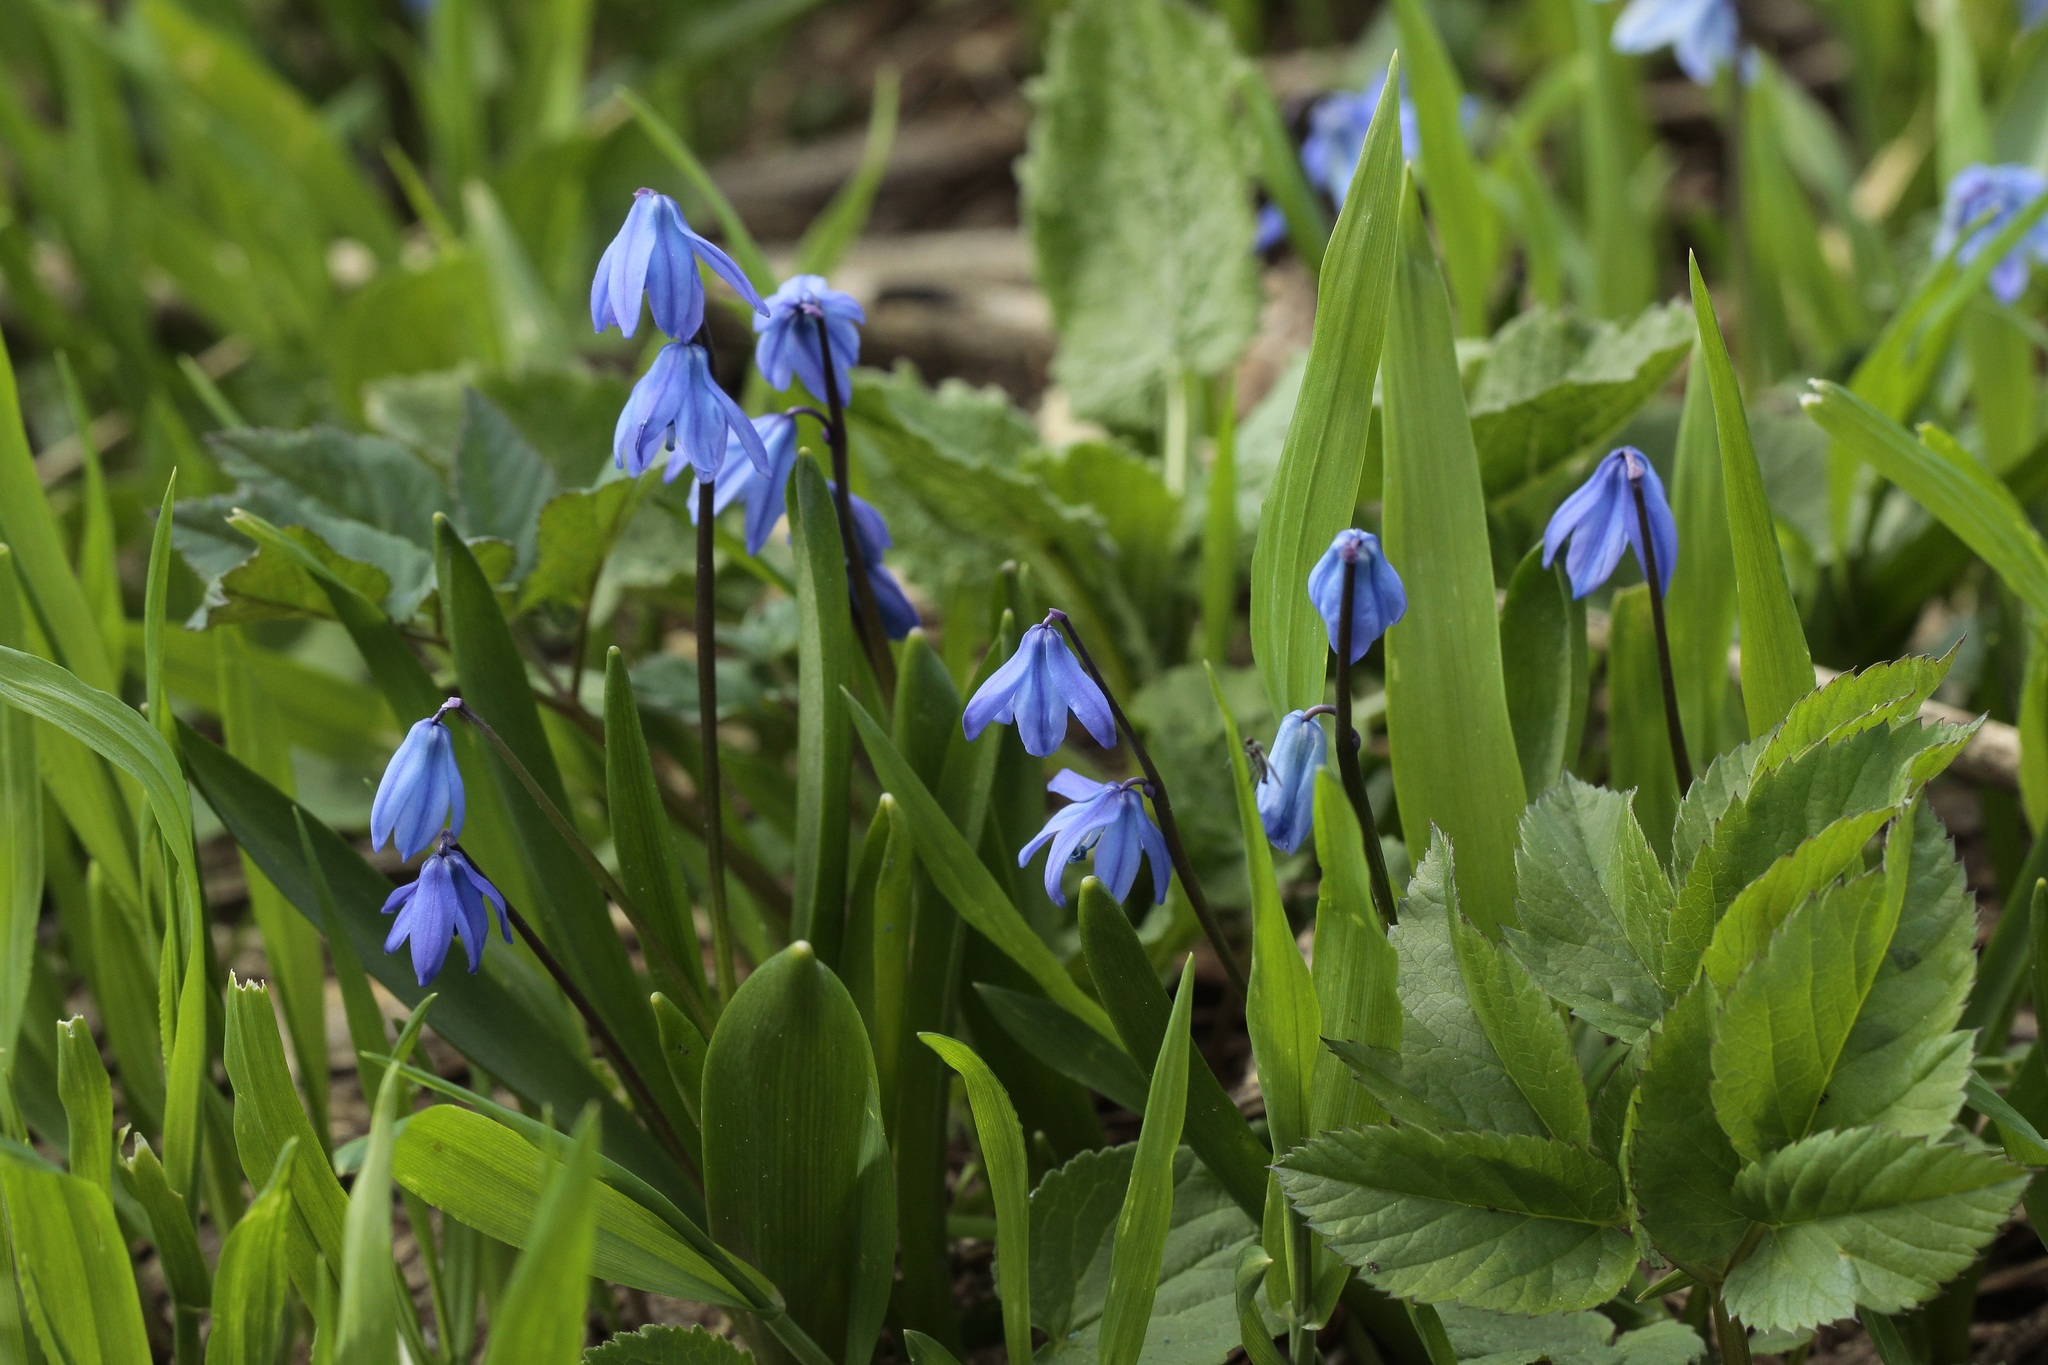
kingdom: Plantae
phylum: Tracheophyta
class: Liliopsida
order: Asparagales
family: Asparagaceae
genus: Scilla
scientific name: Scilla siberica
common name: Siberian squill
